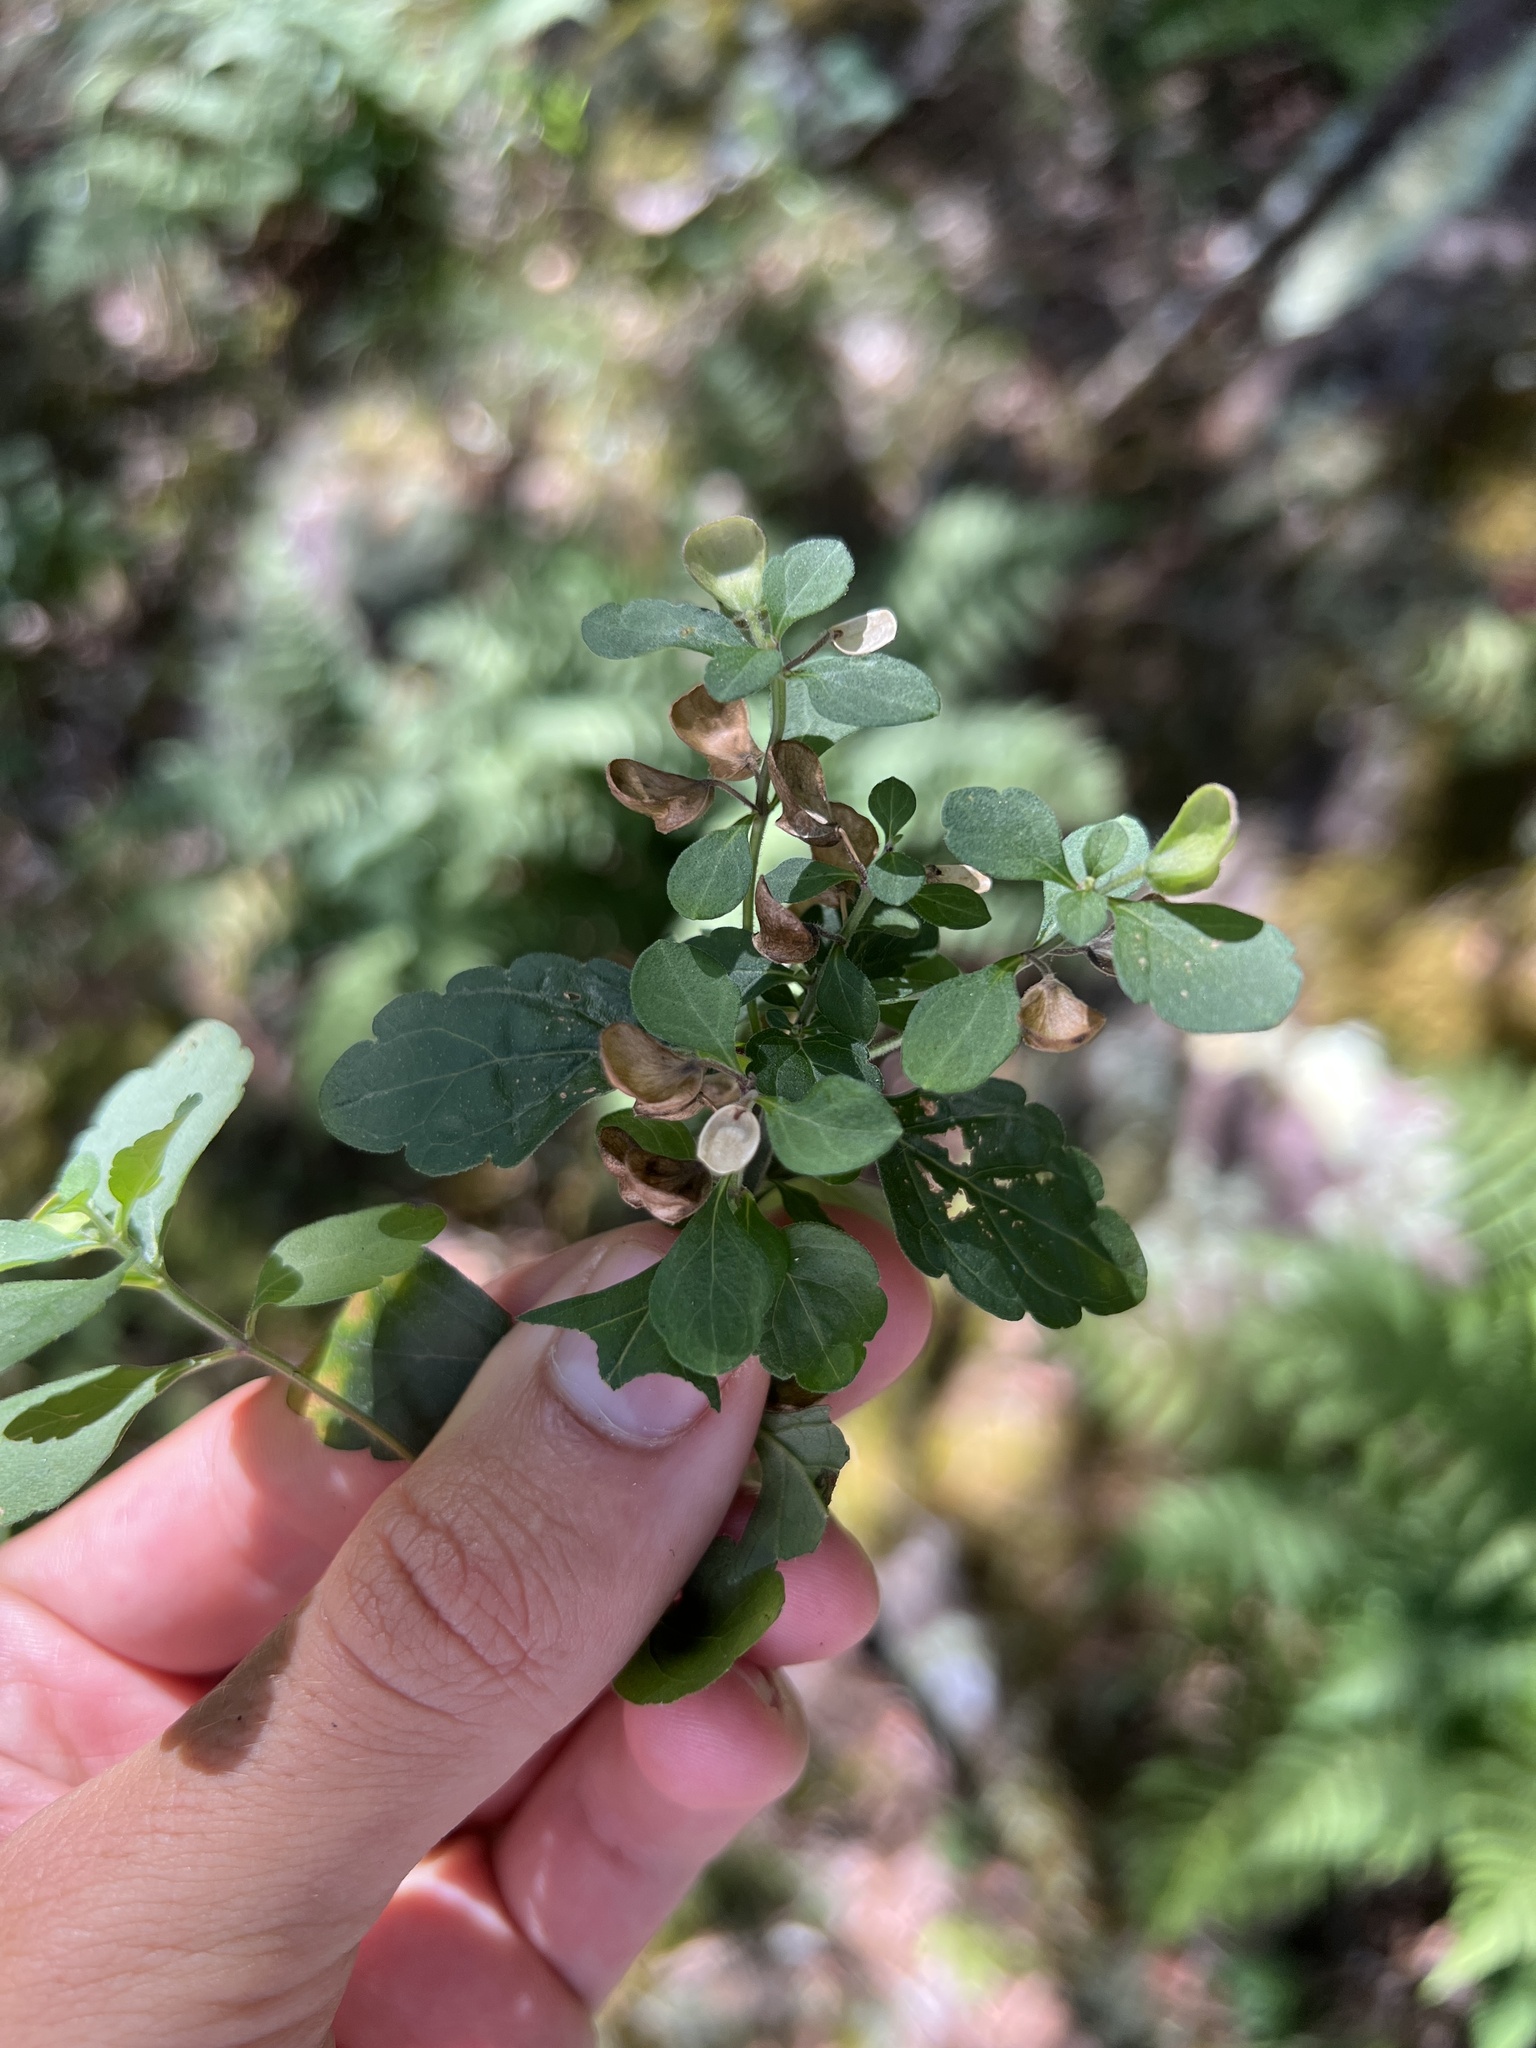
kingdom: Plantae
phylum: Tracheophyta
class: Magnoliopsida
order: Lamiales
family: Lamiaceae
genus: Scutellaria
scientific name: Scutellaria elliptica
